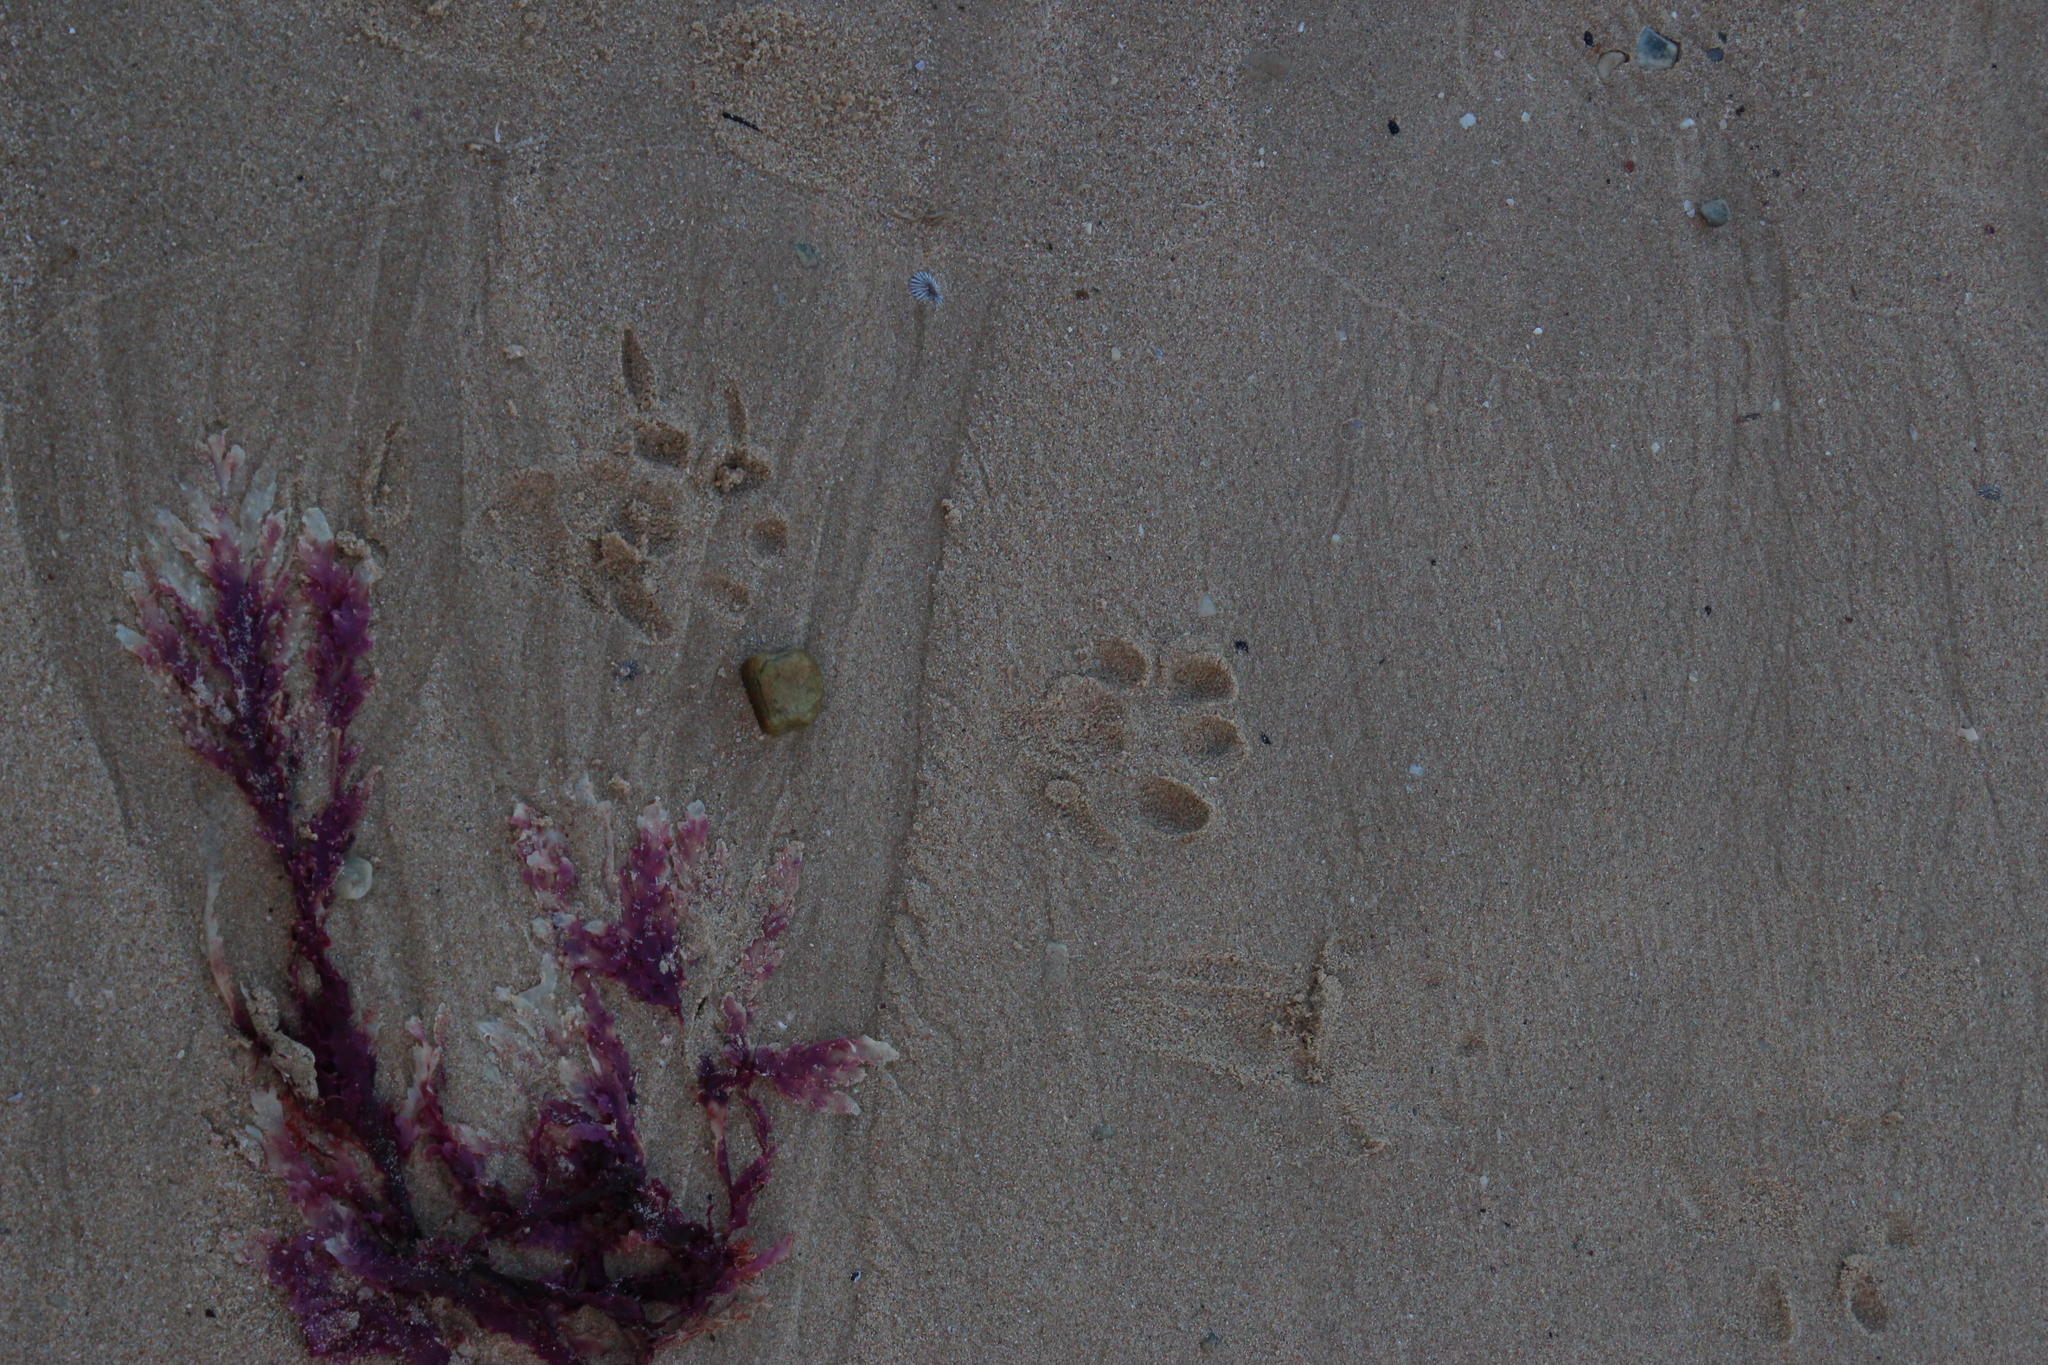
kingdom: Animalia
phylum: Chordata
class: Mammalia
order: Carnivora
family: Mustelidae
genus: Aonyx
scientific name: Aonyx capensis
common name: African clawless otter
